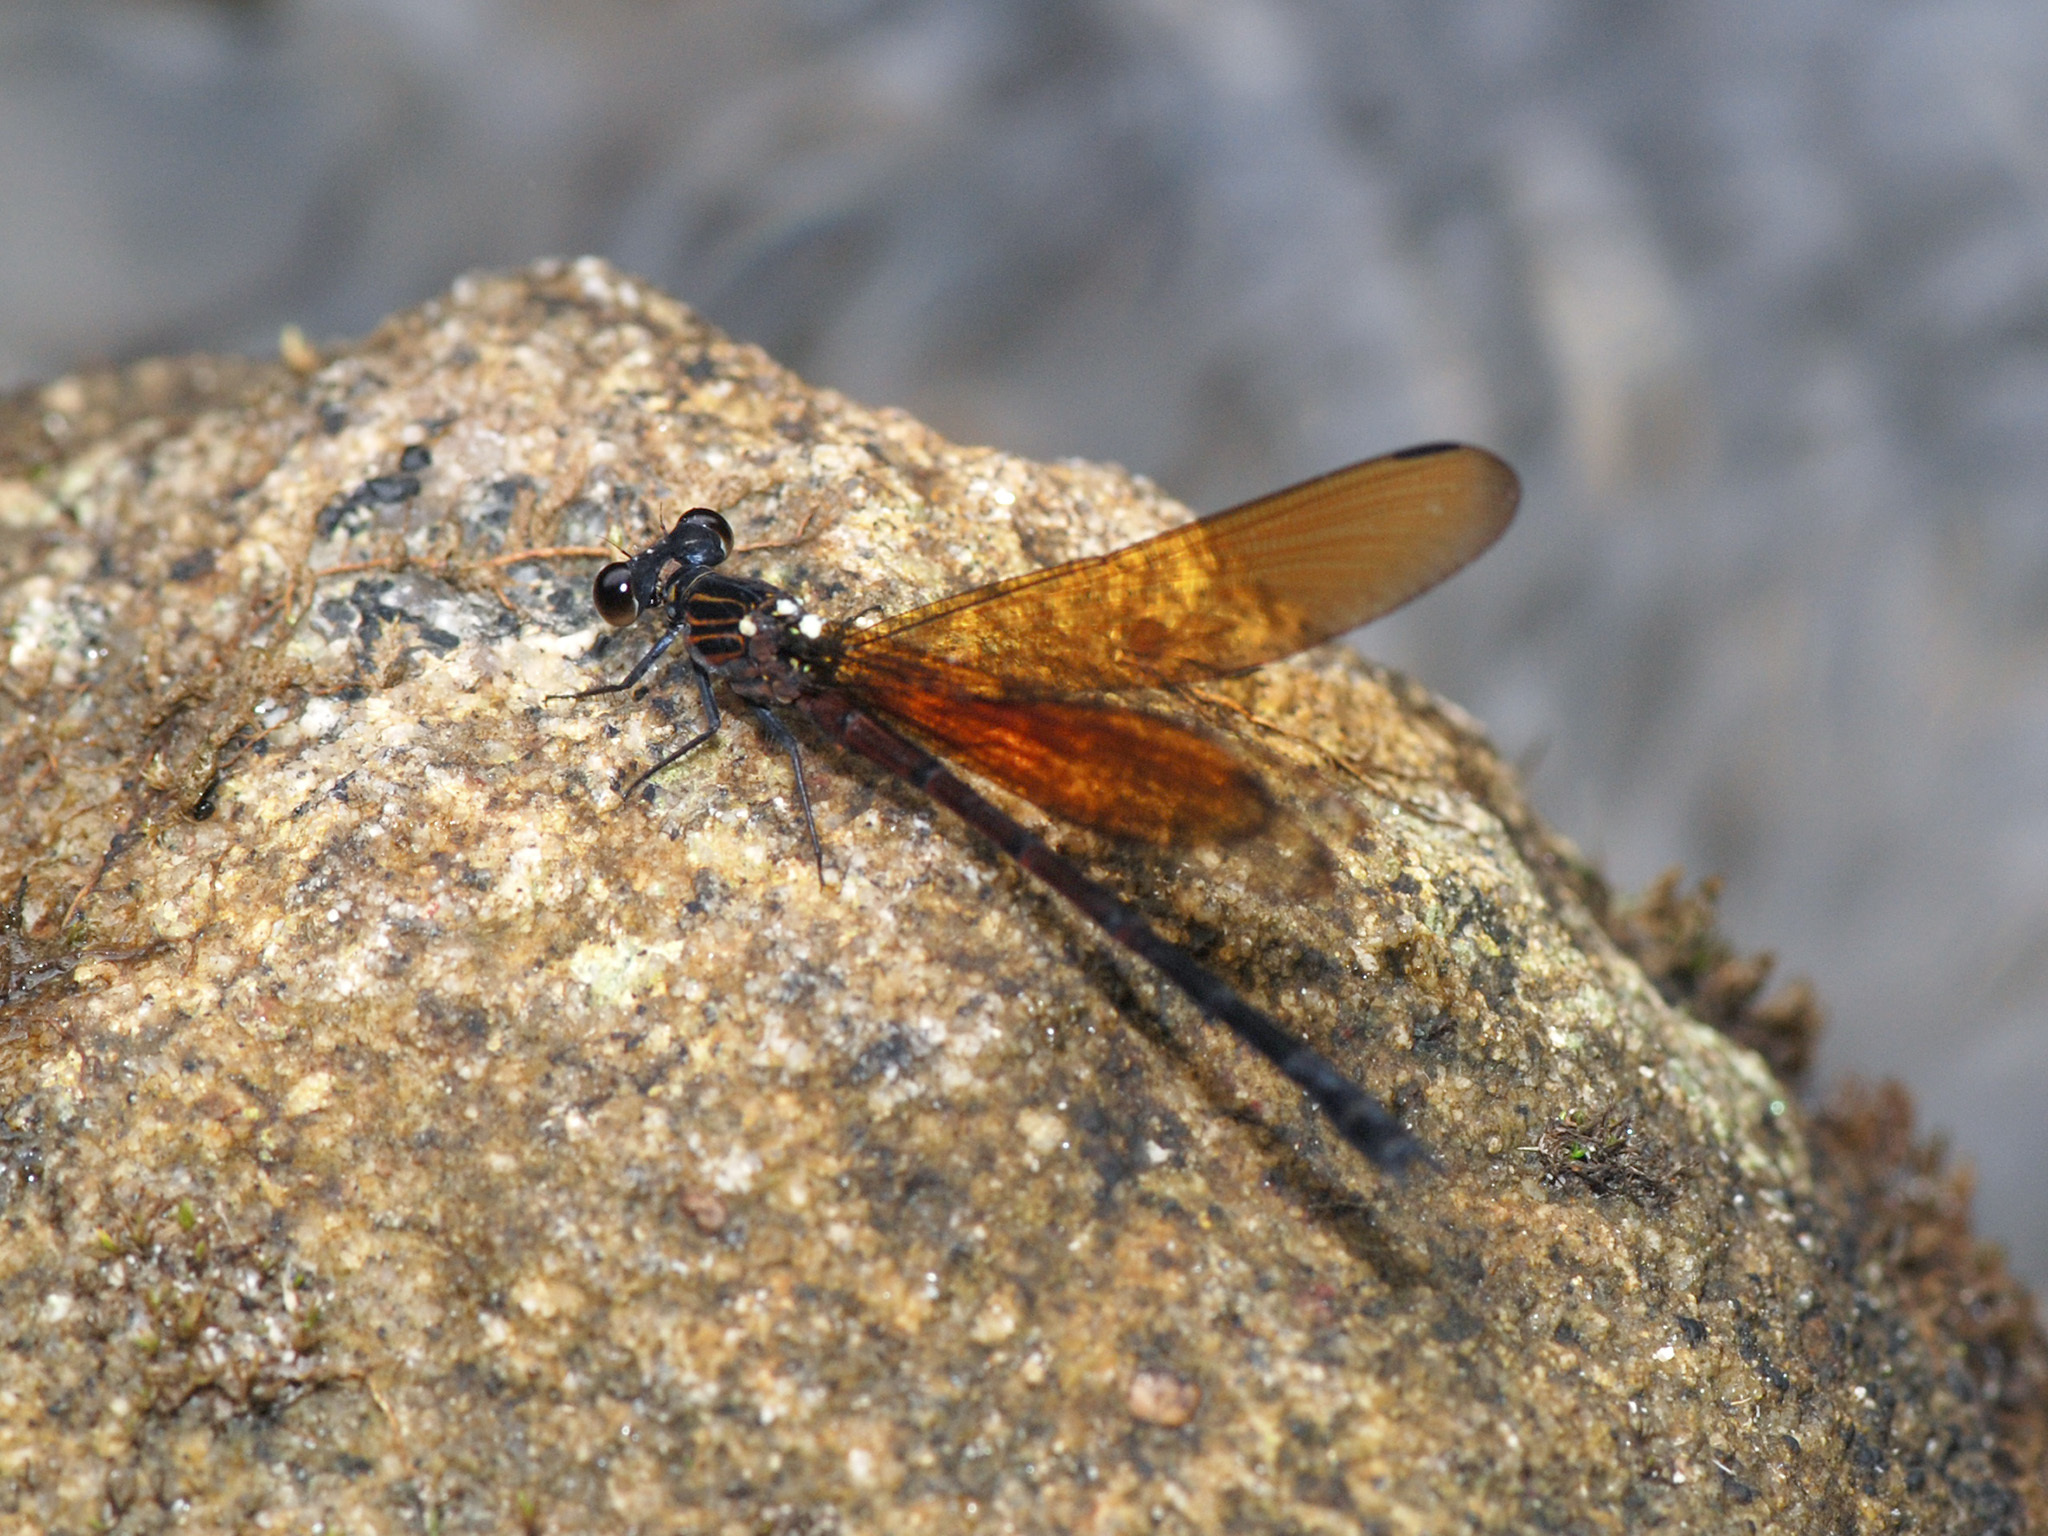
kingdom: Animalia
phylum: Arthropoda
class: Insecta
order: Odonata
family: Euphaeidae
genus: Euphaea
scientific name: Euphaea ochracea
